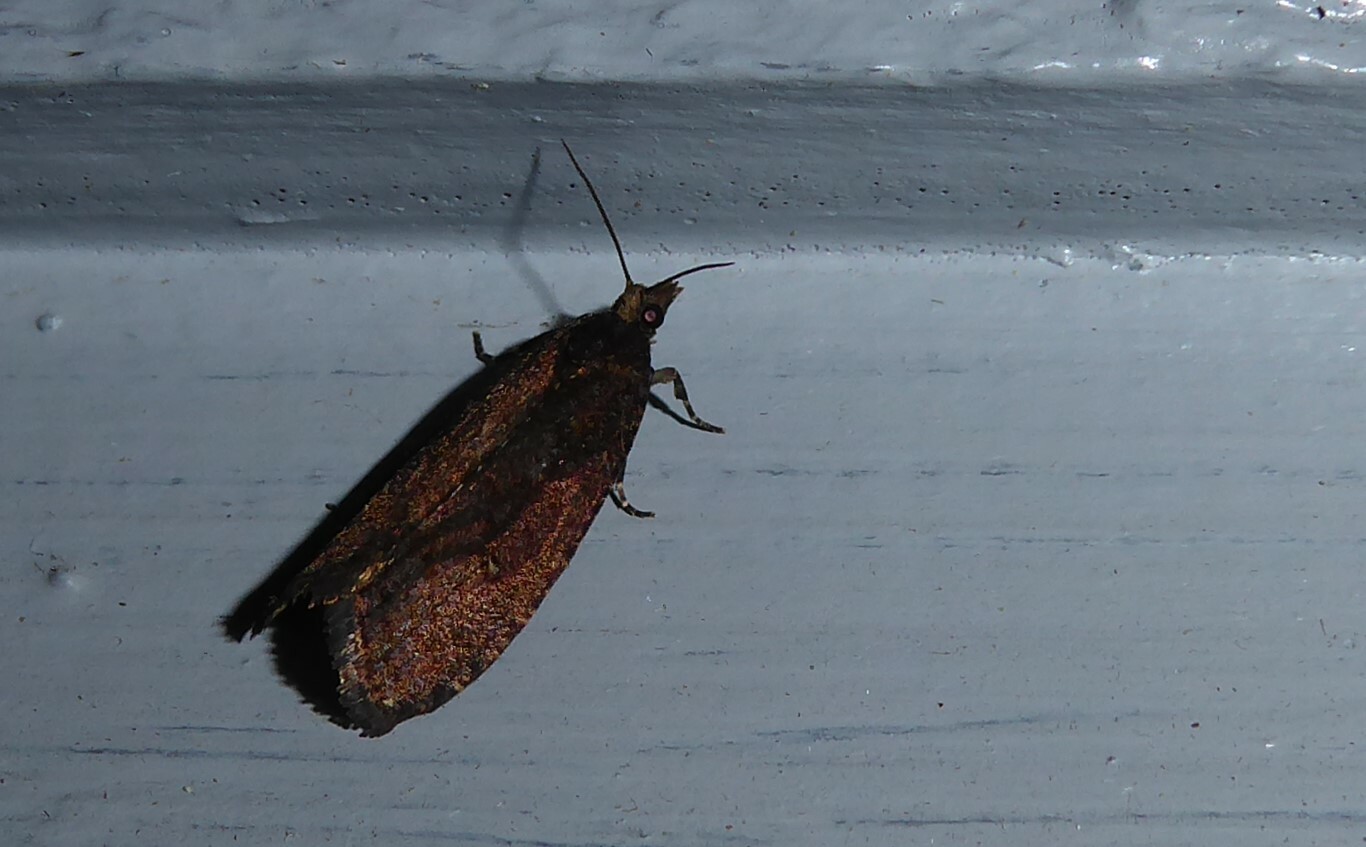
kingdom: Animalia
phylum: Arthropoda
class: Insecta
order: Lepidoptera
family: Tortricidae
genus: Cryptaspasma
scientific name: Cryptaspasma querula
